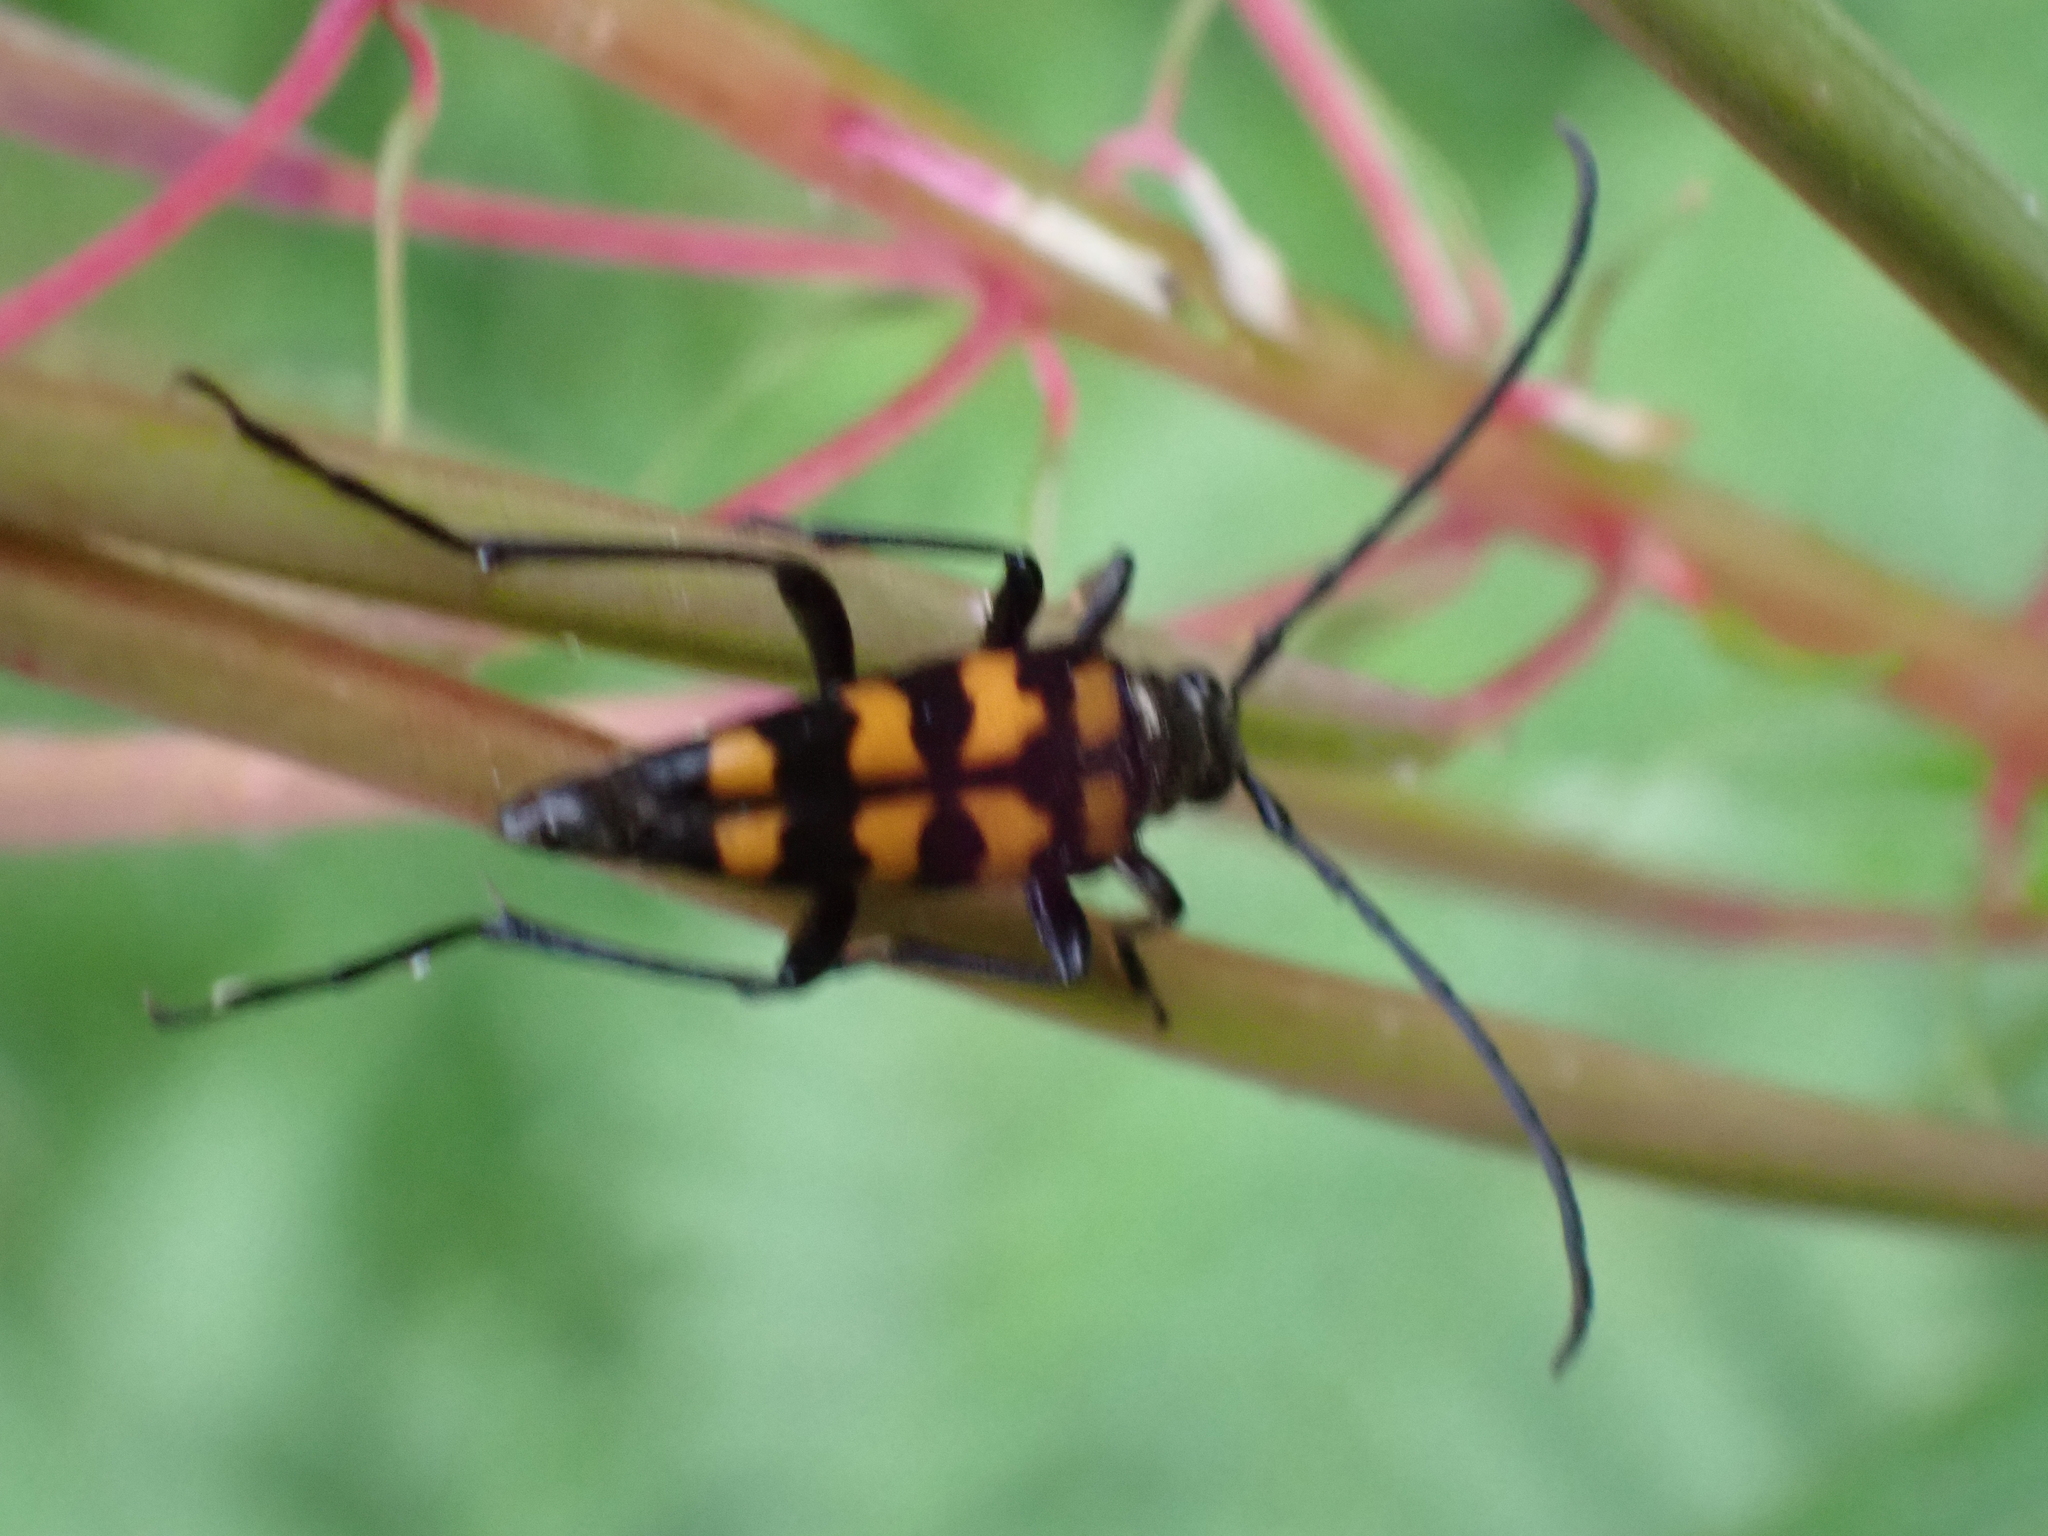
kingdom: Animalia
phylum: Arthropoda
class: Insecta
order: Coleoptera
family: Cerambycidae
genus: Leptura
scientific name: Leptura quadrifasciata
